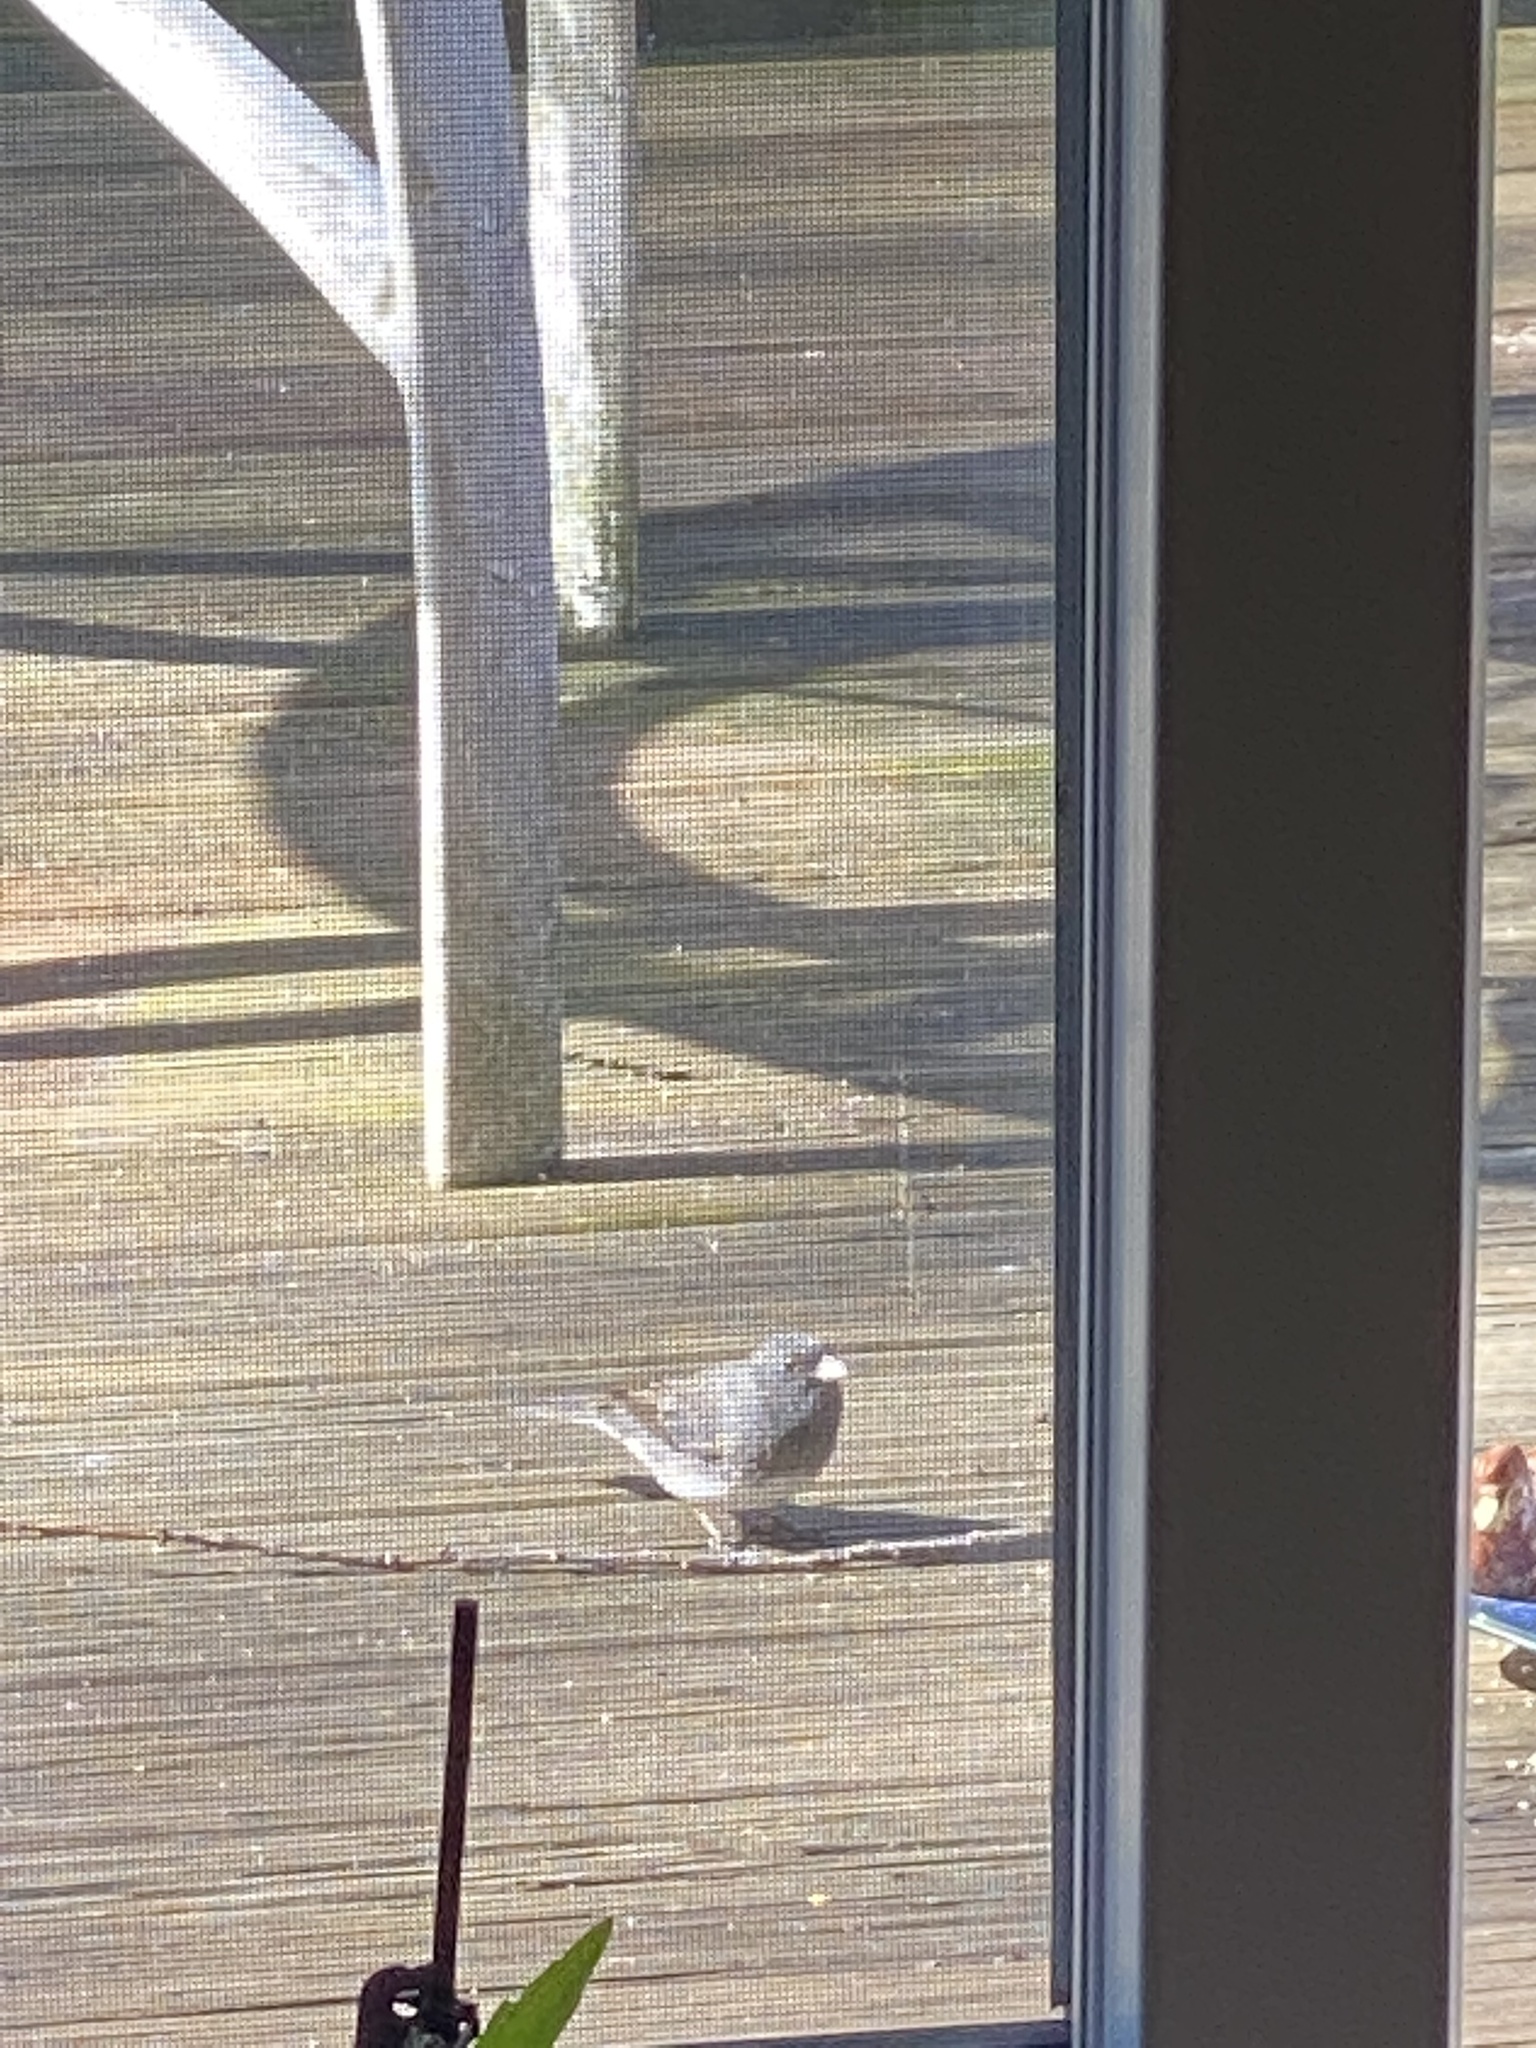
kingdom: Animalia
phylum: Chordata
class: Aves
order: Passeriformes
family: Passerellidae
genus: Junco
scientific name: Junco hyemalis
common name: Dark-eyed junco
